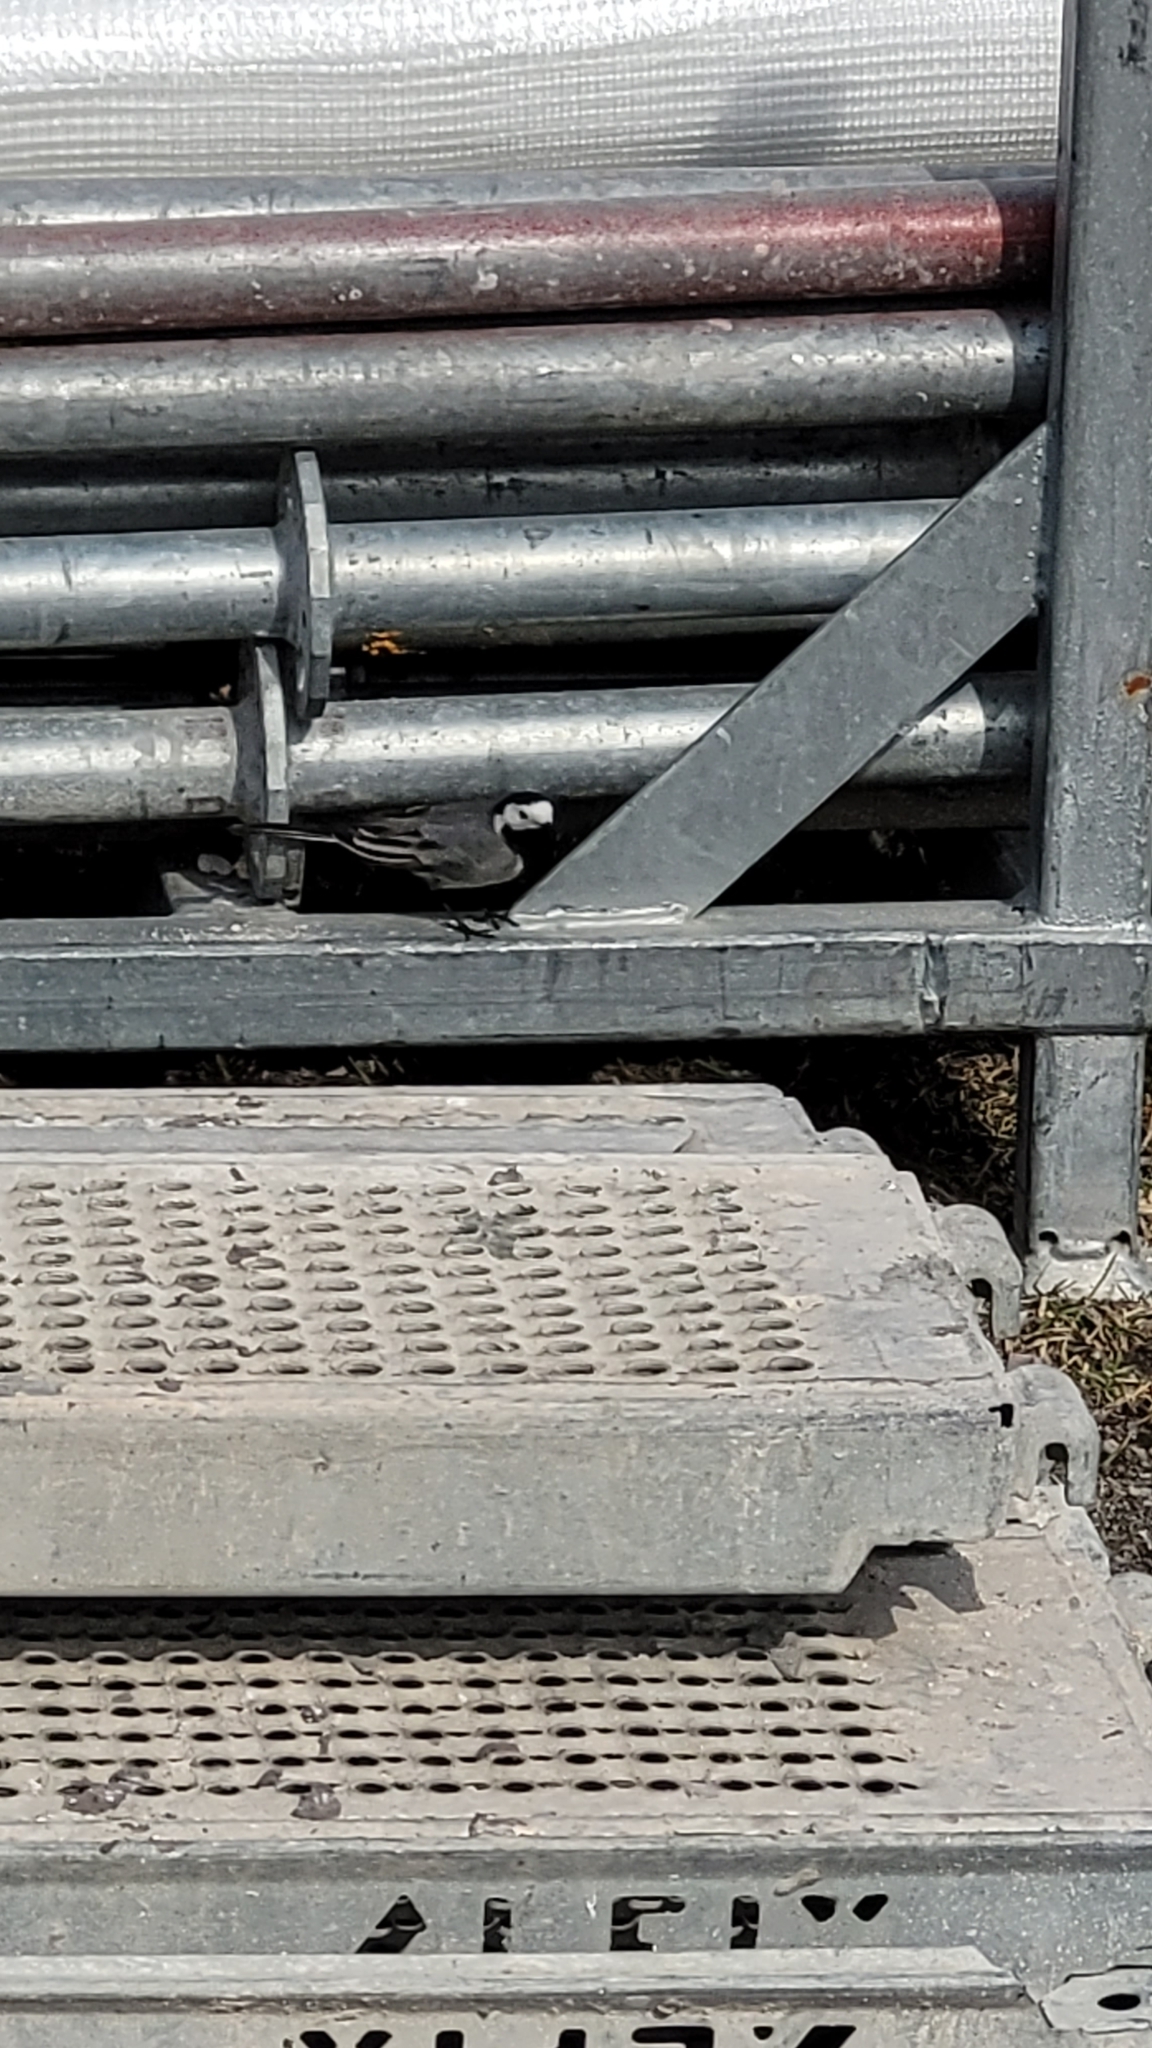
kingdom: Animalia
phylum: Chordata
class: Aves
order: Passeriformes
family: Motacillidae
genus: Motacilla
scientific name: Motacilla alba
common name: White wagtail
